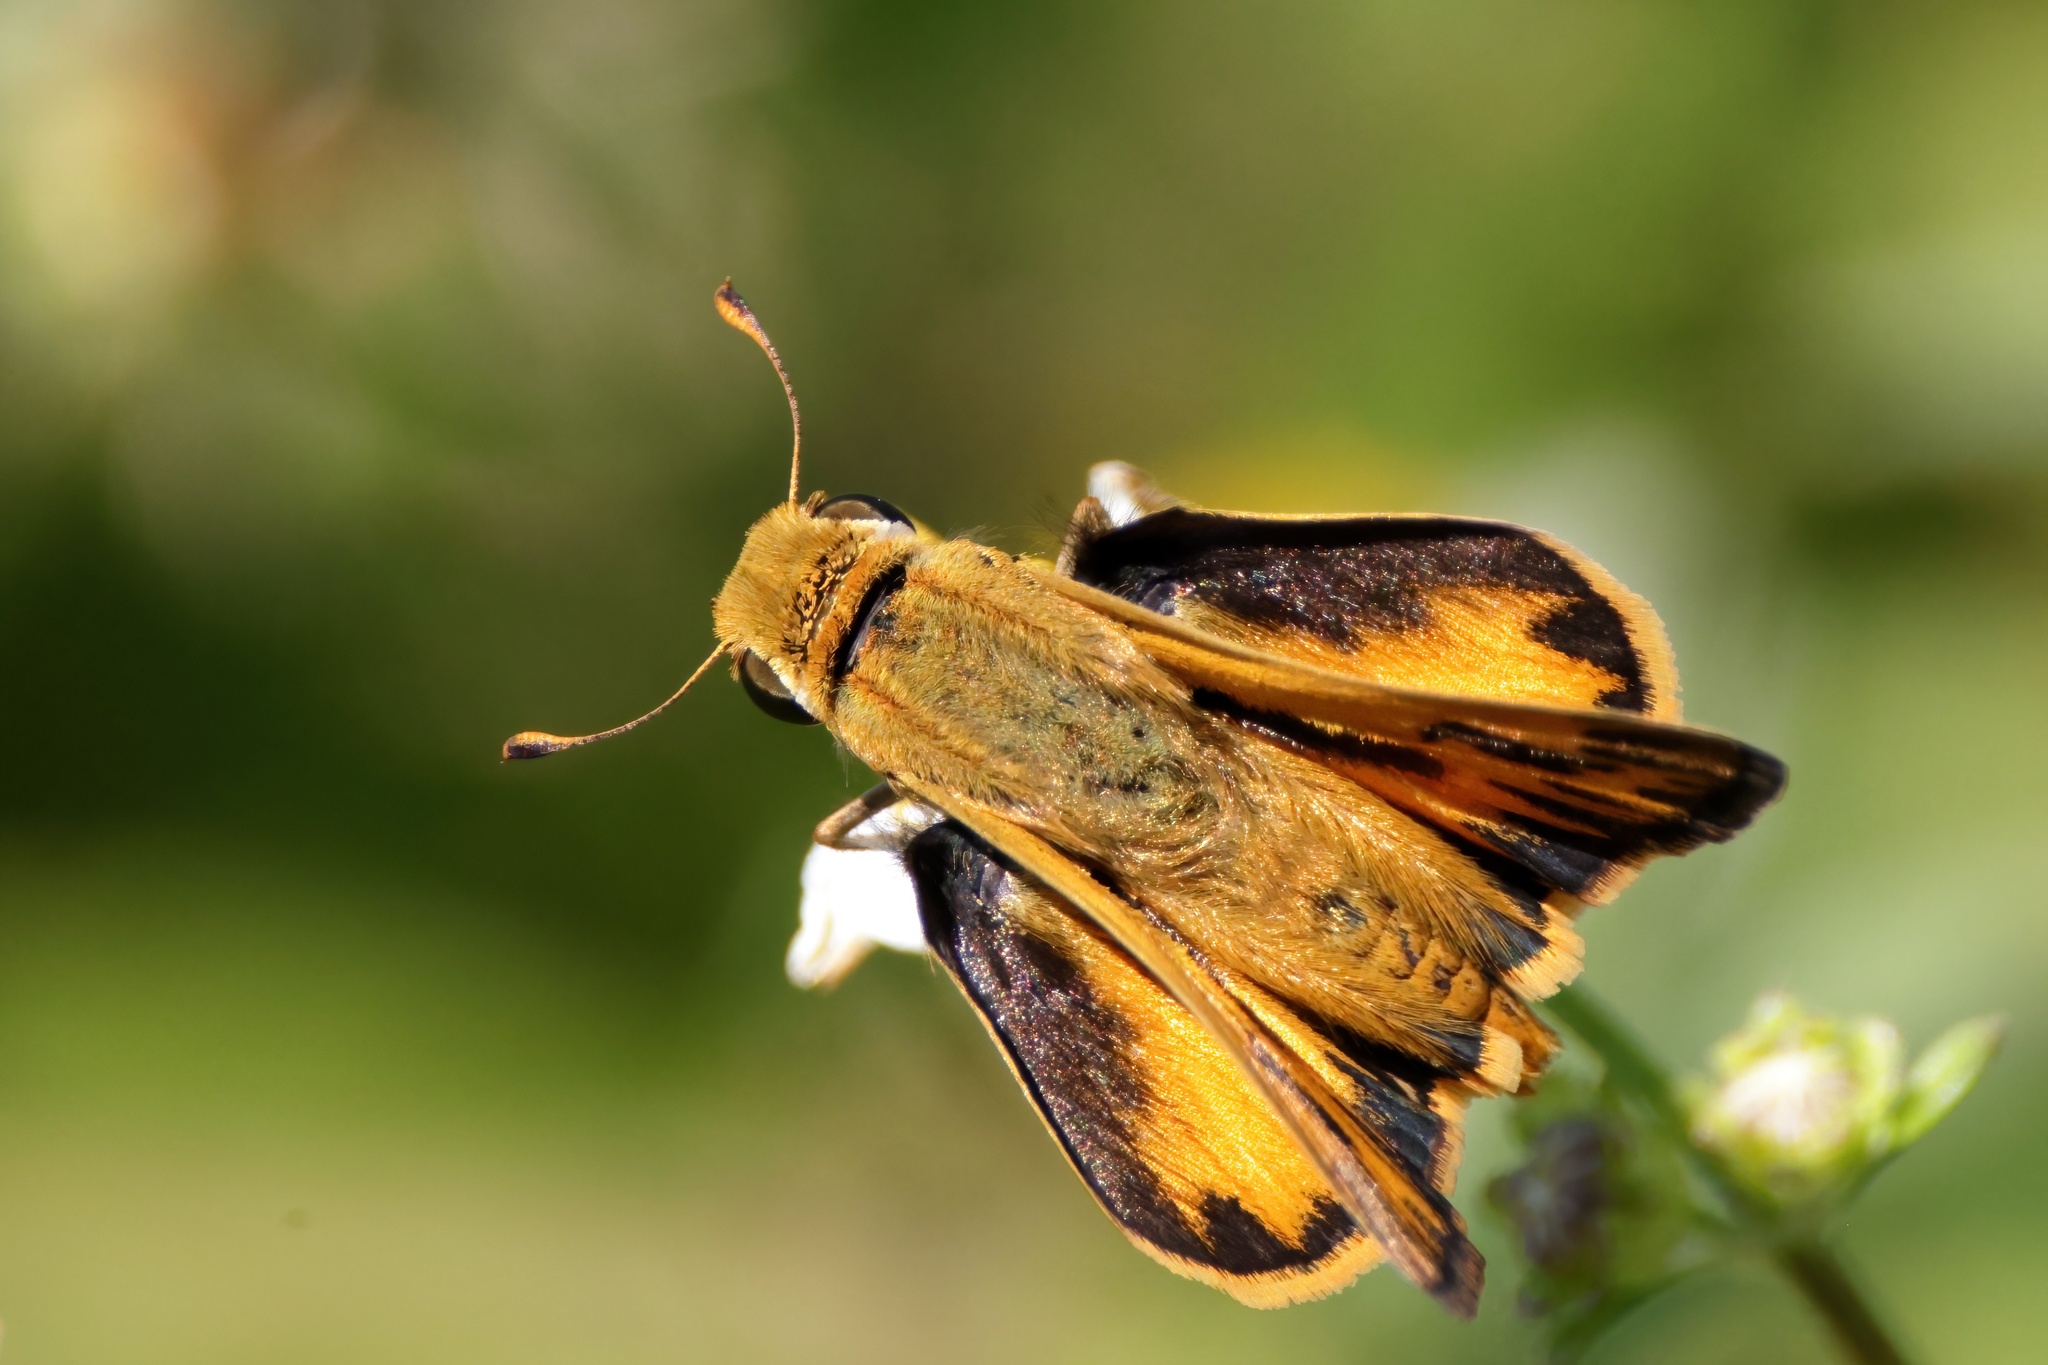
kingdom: Animalia
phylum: Arthropoda
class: Insecta
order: Lepidoptera
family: Hesperiidae
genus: Hylephila
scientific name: Hylephila phyleus
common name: Fiery skipper
